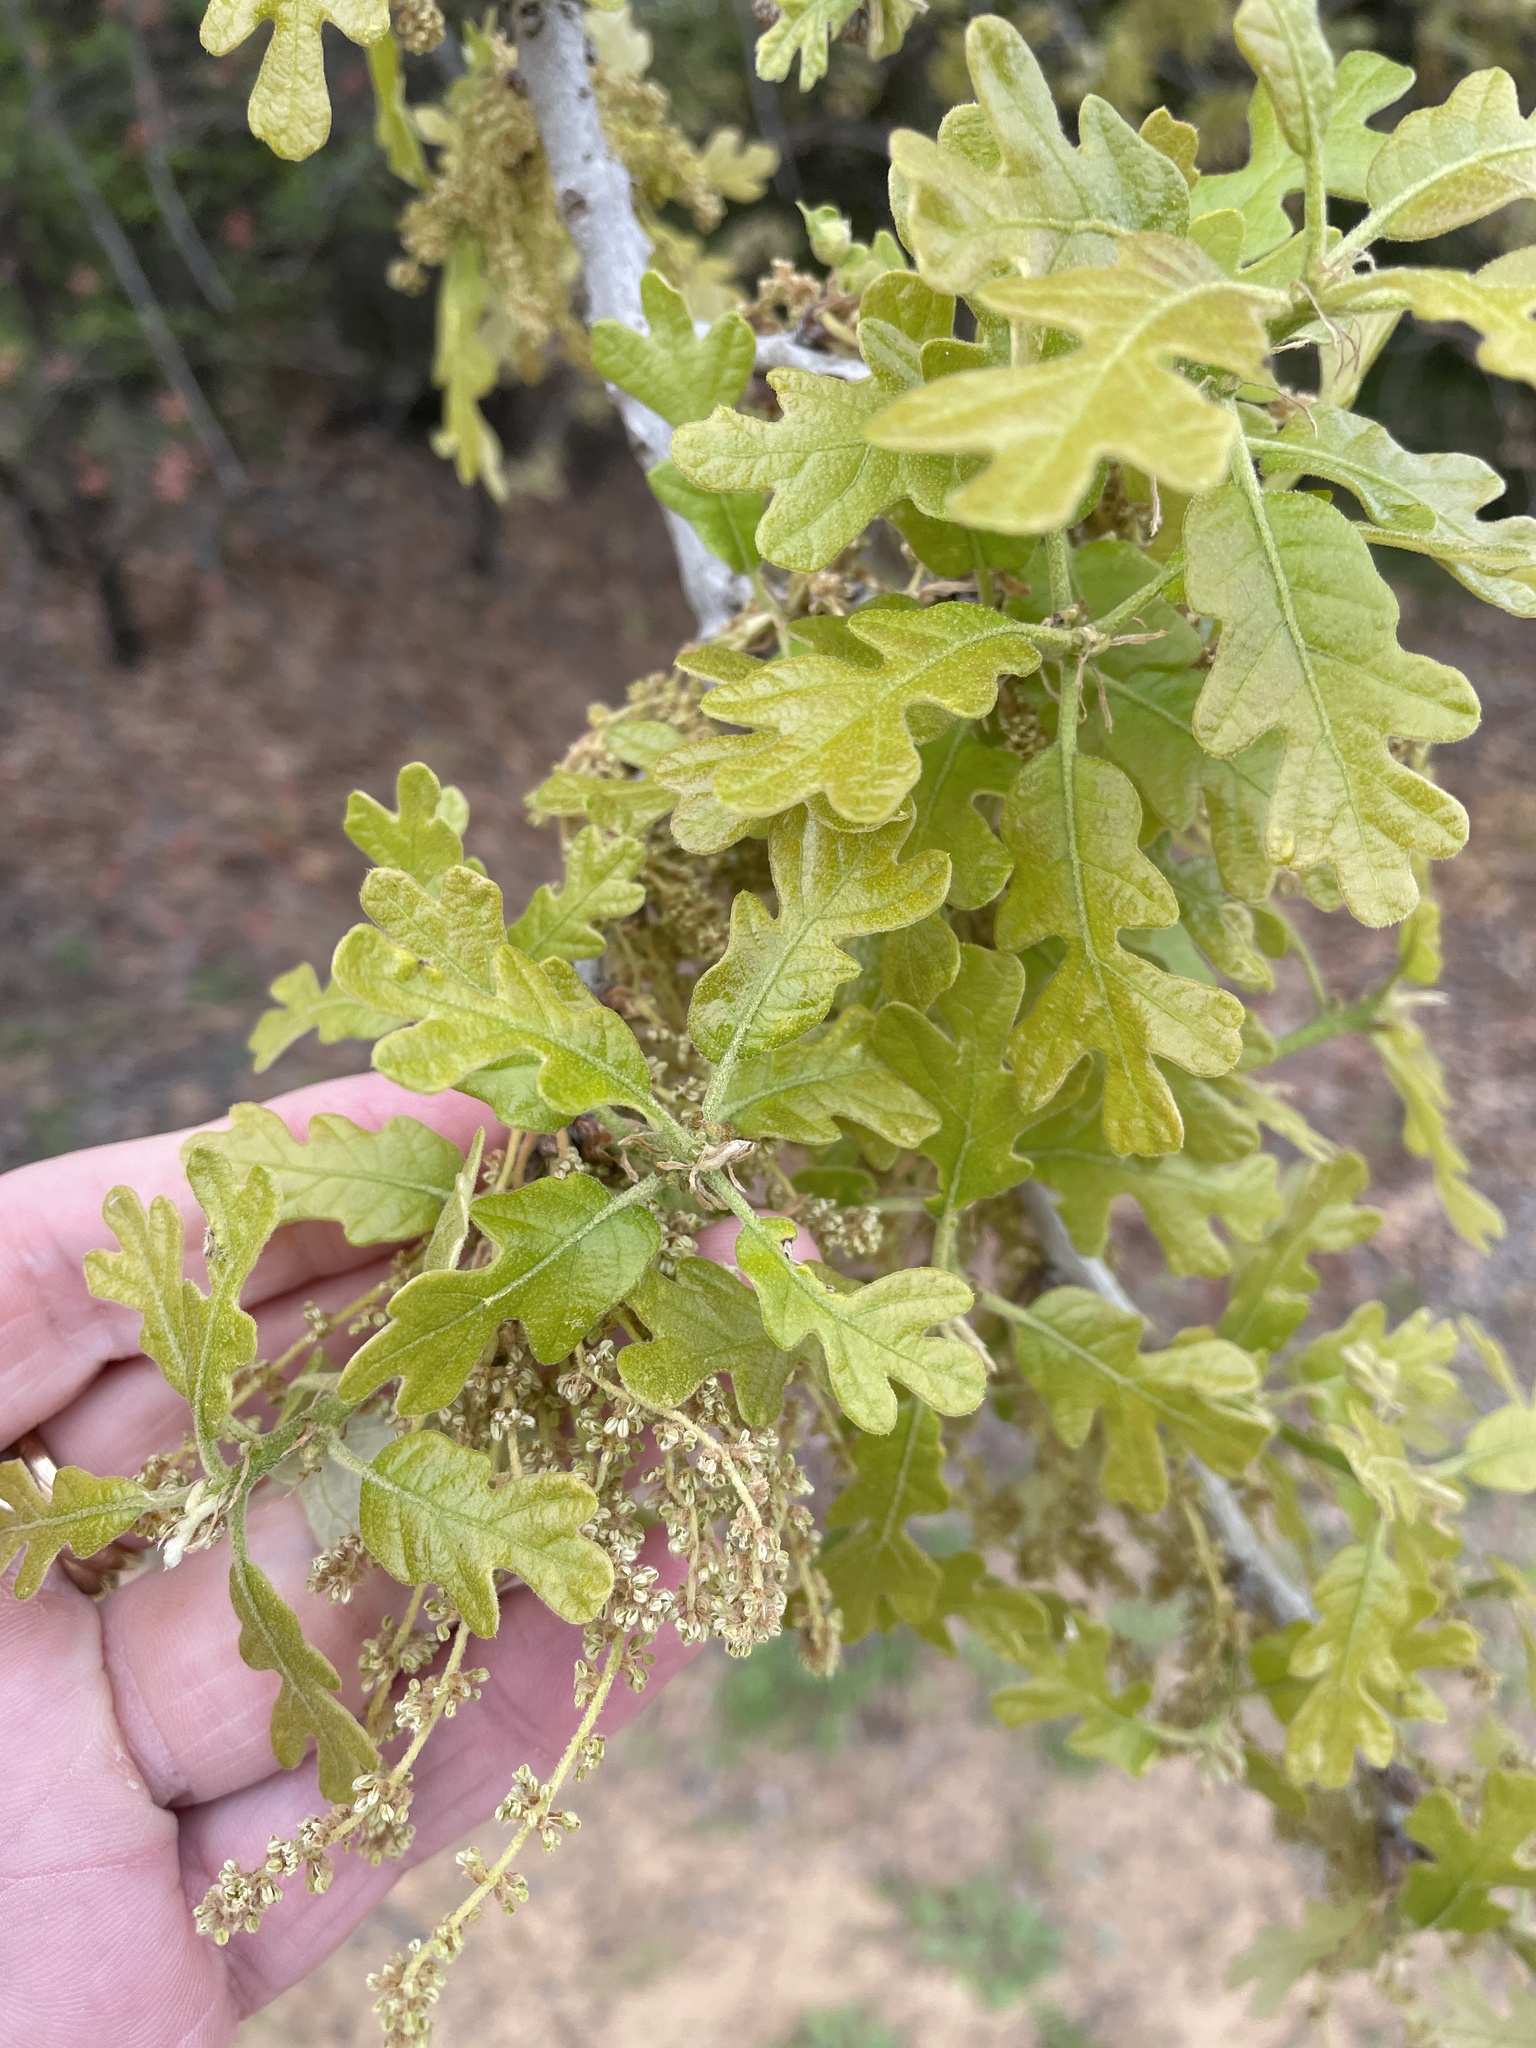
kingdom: Plantae
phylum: Tracheophyta
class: Magnoliopsida
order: Fagales
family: Fagaceae
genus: Quercus
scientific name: Quercus stellata
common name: Post oak
